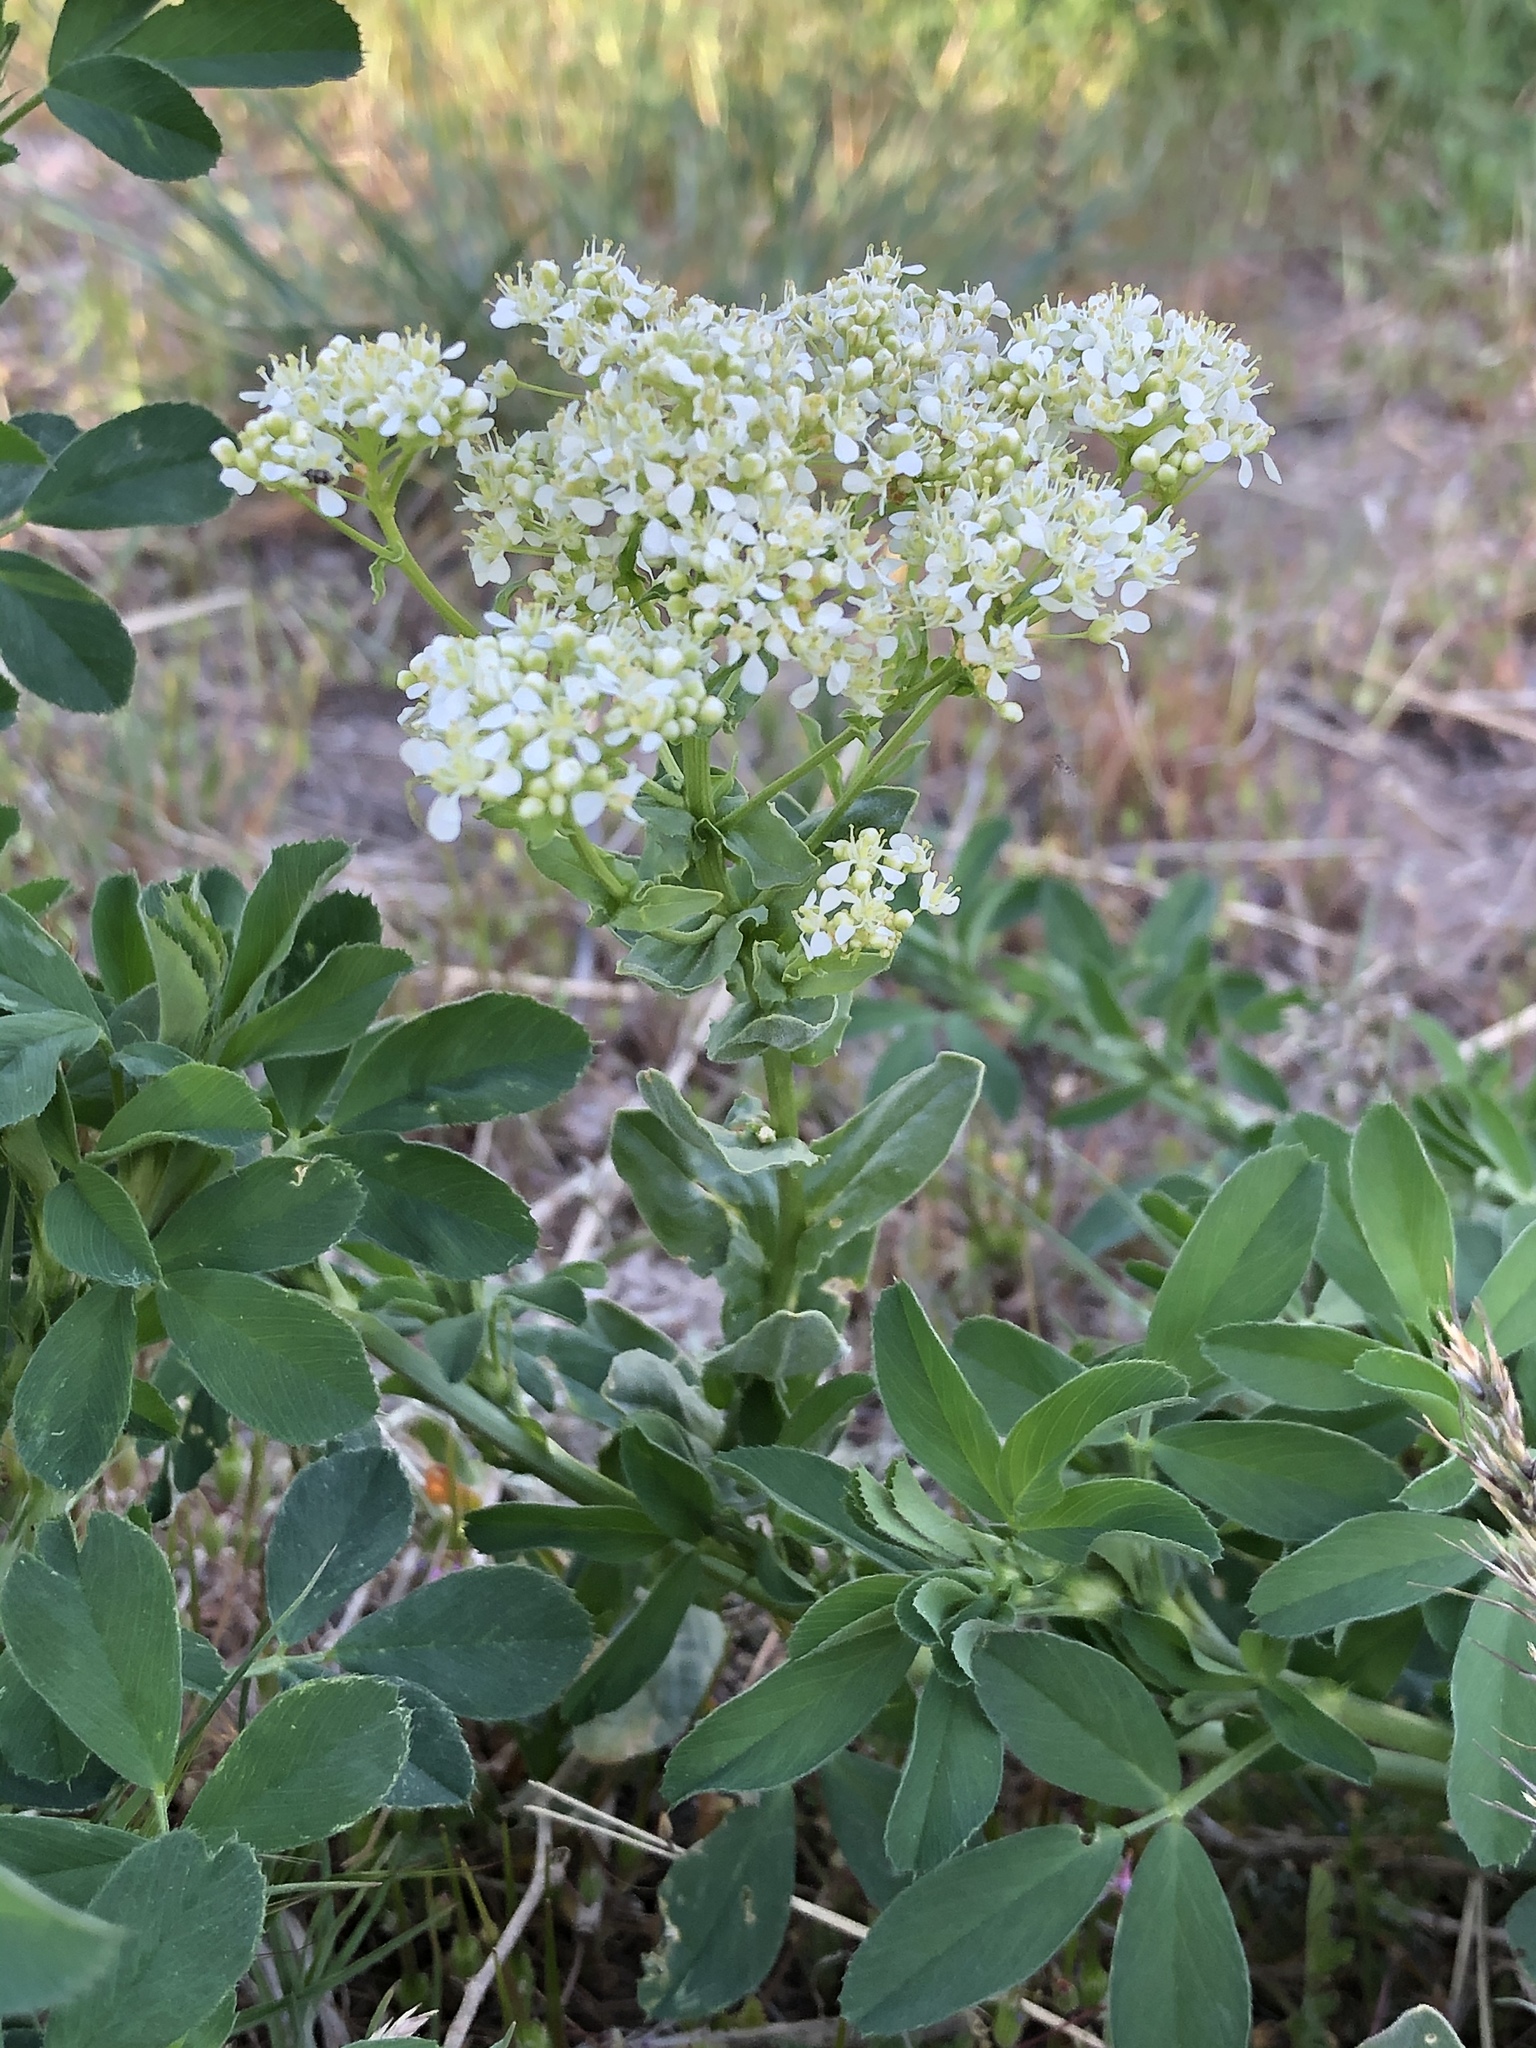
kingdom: Plantae
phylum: Tracheophyta
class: Magnoliopsida
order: Brassicales
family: Brassicaceae
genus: Lepidium
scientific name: Lepidium draba
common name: Hoary cress
